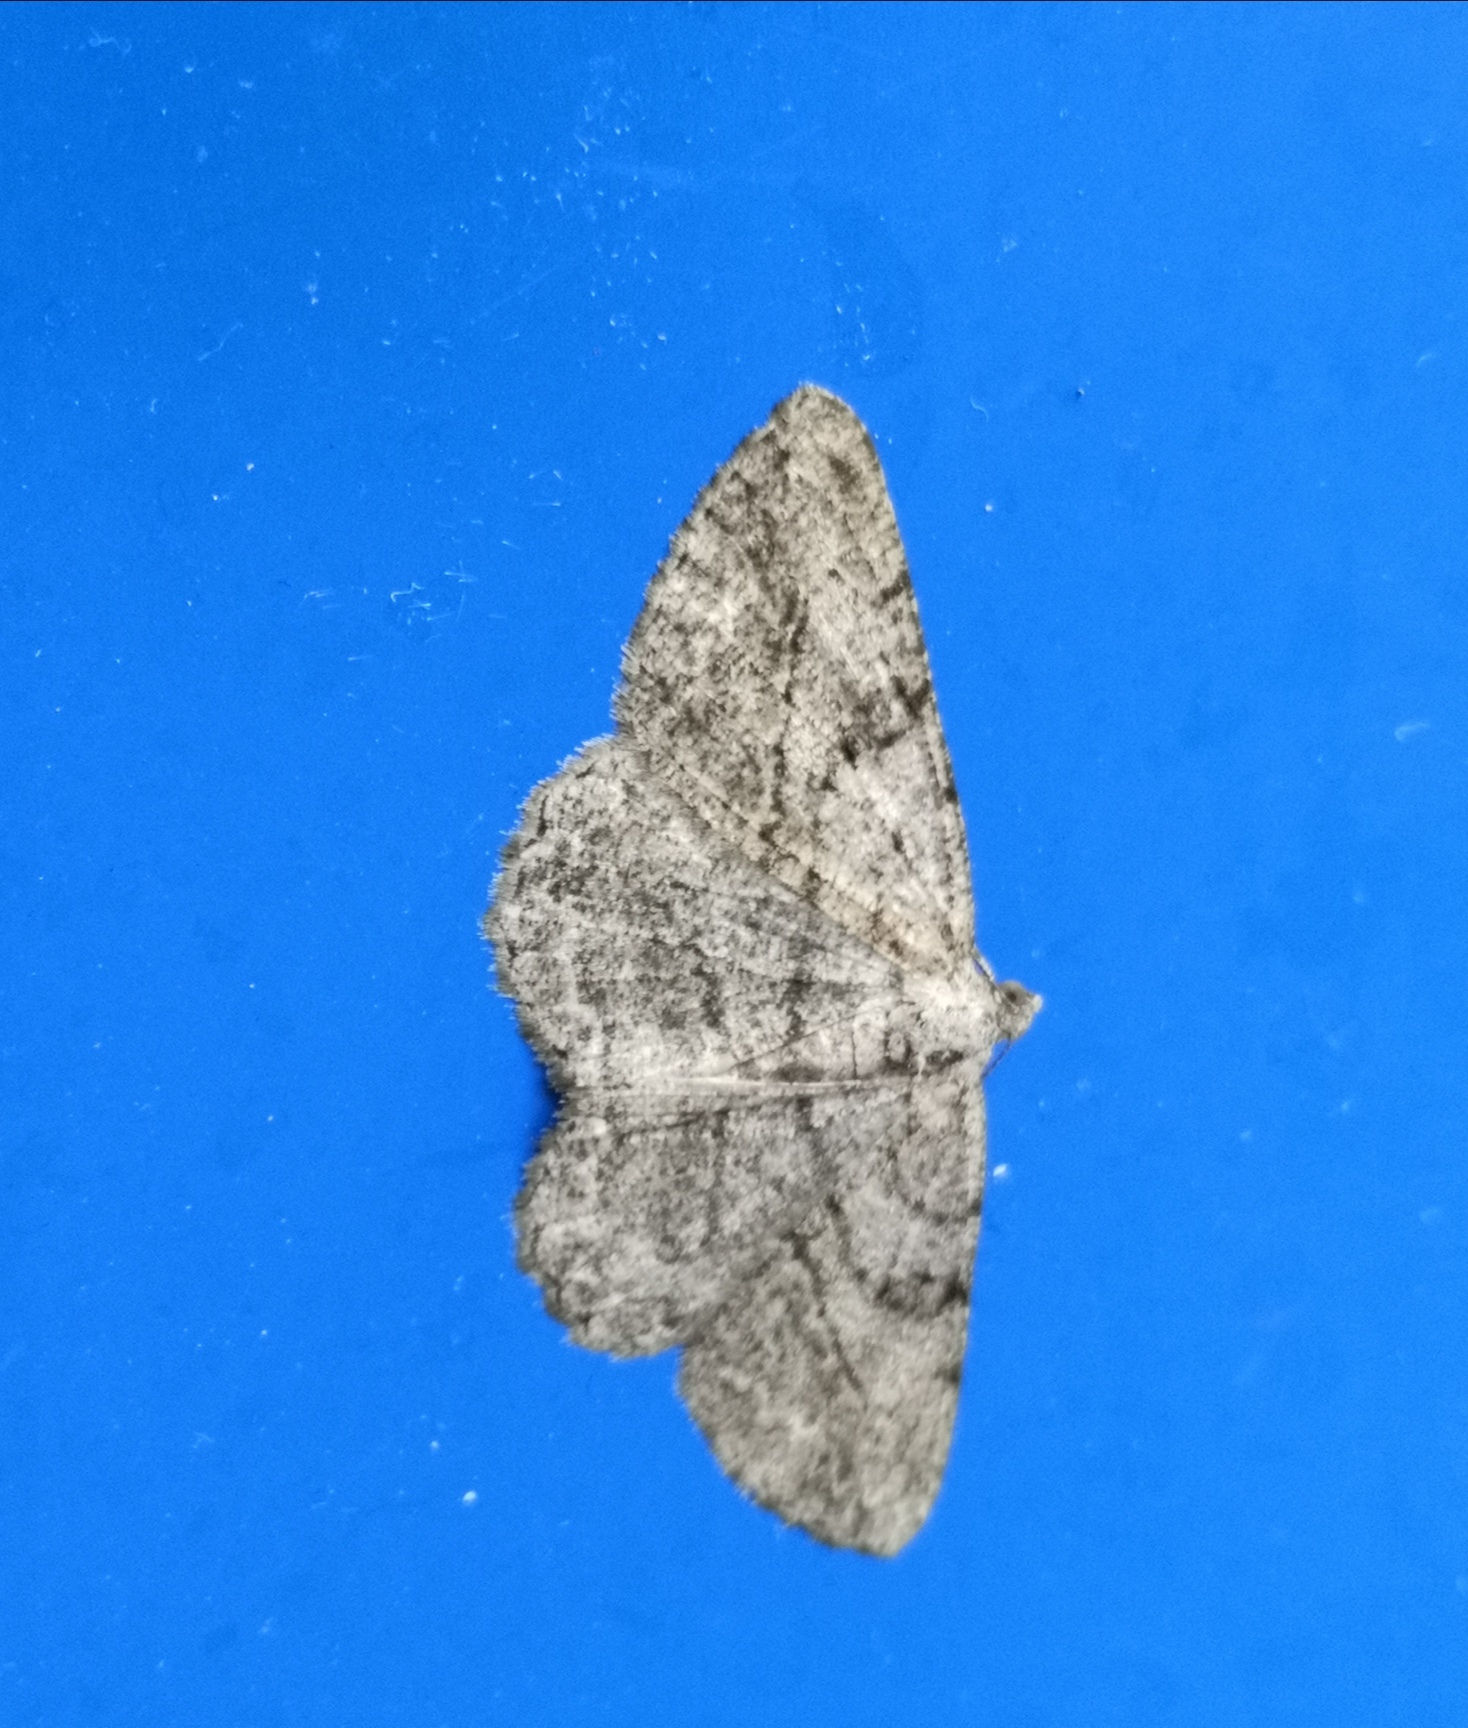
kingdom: Animalia
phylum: Arthropoda
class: Insecta
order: Lepidoptera
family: Geometridae
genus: Peribatodes
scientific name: Peribatodes rhomboidaria
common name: Willow beauty
